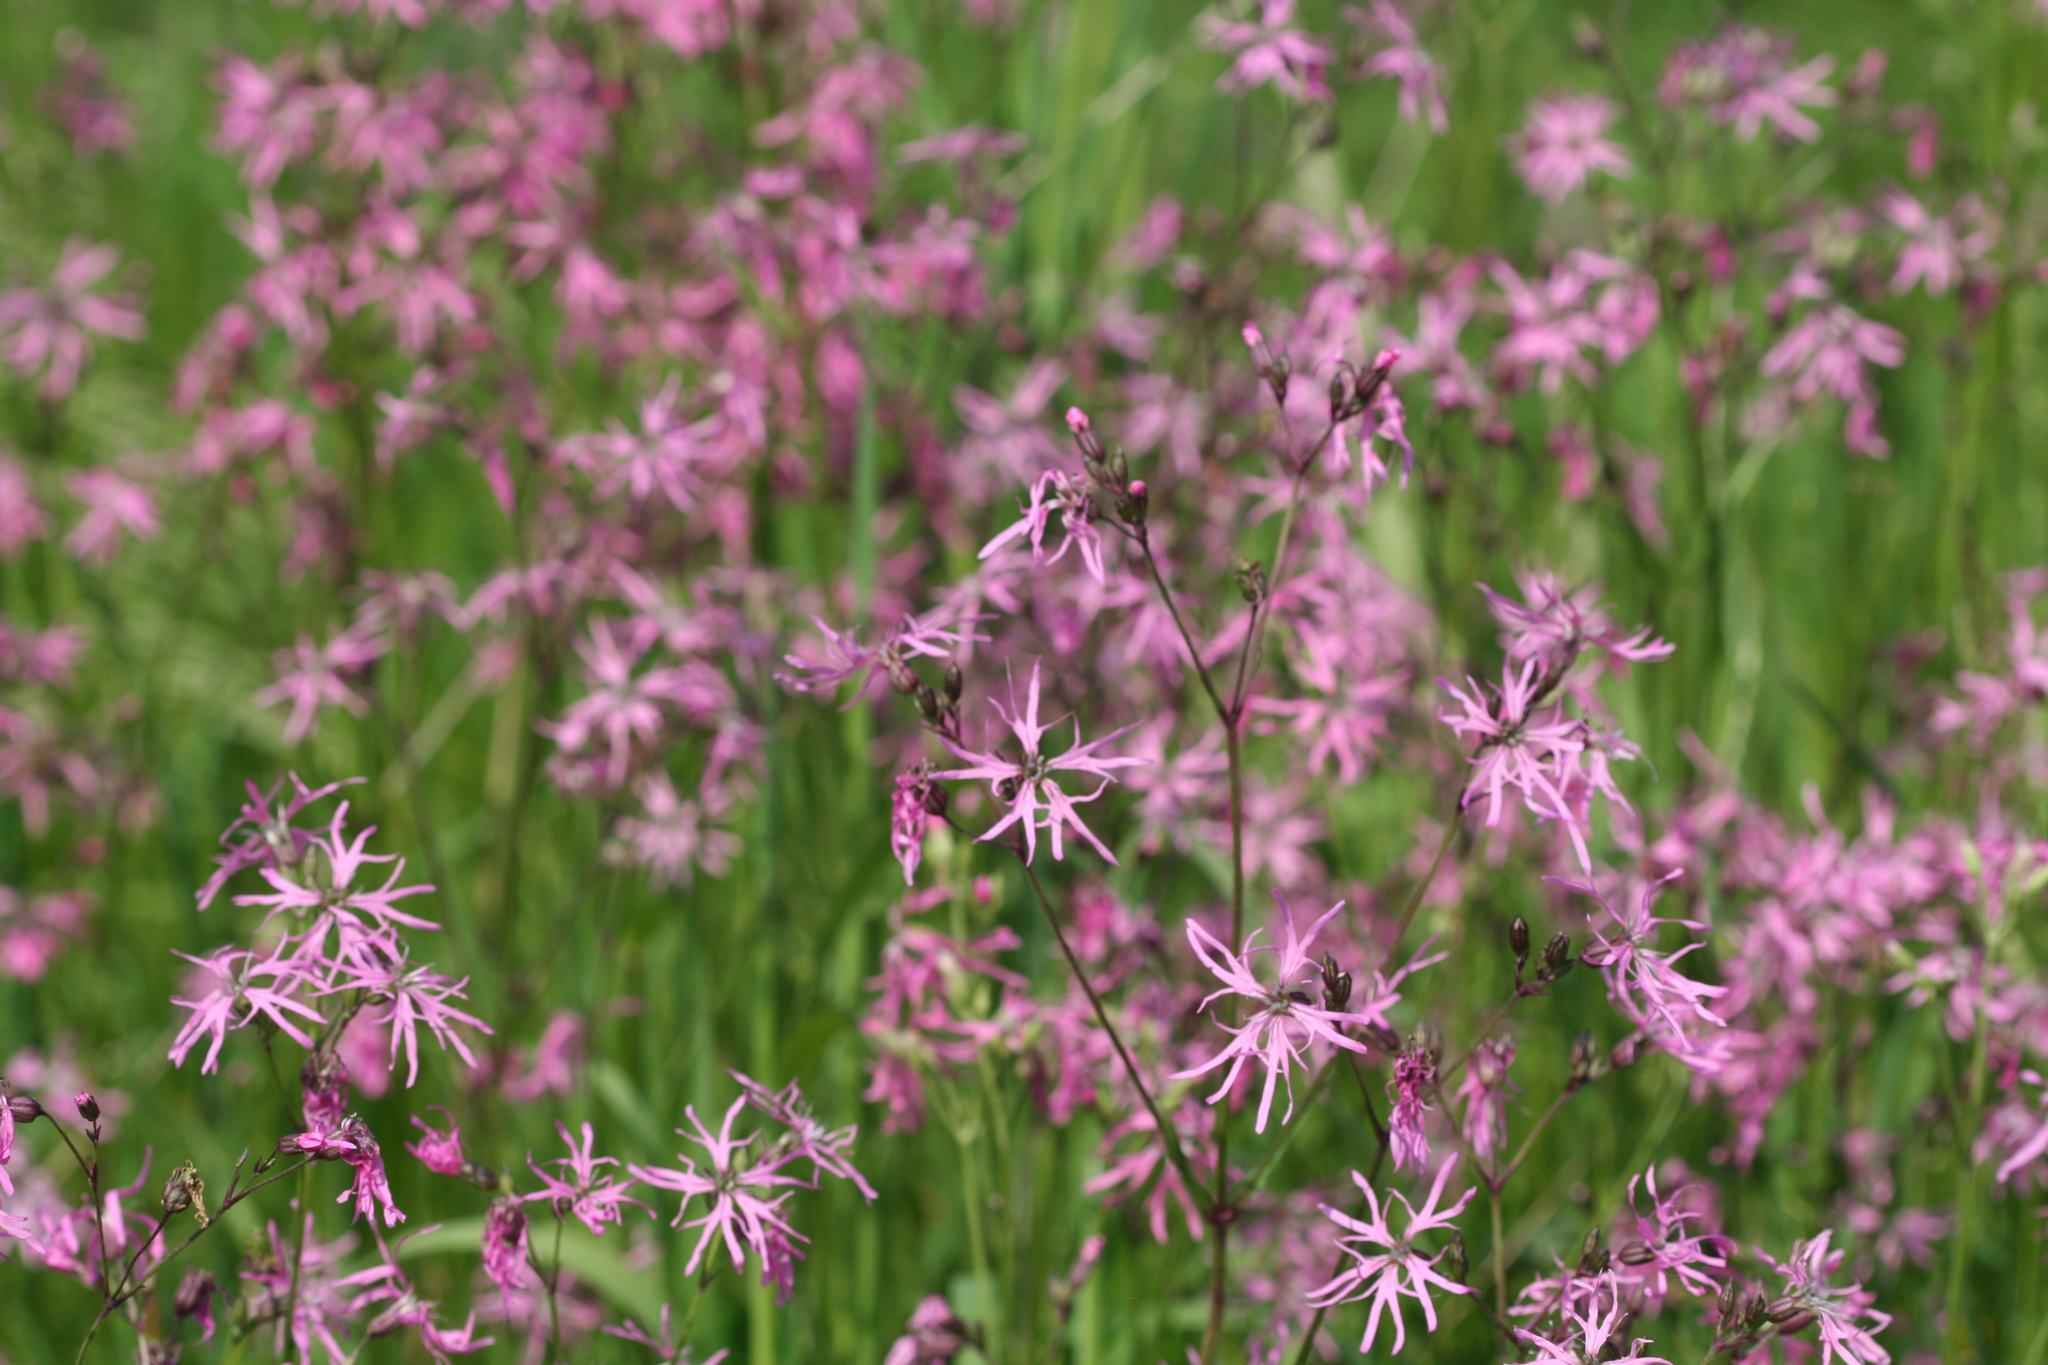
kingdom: Plantae
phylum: Tracheophyta
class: Magnoliopsida
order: Caryophyllales
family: Caryophyllaceae
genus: Silene
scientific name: Silene flos-cuculi
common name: Ragged-robin
